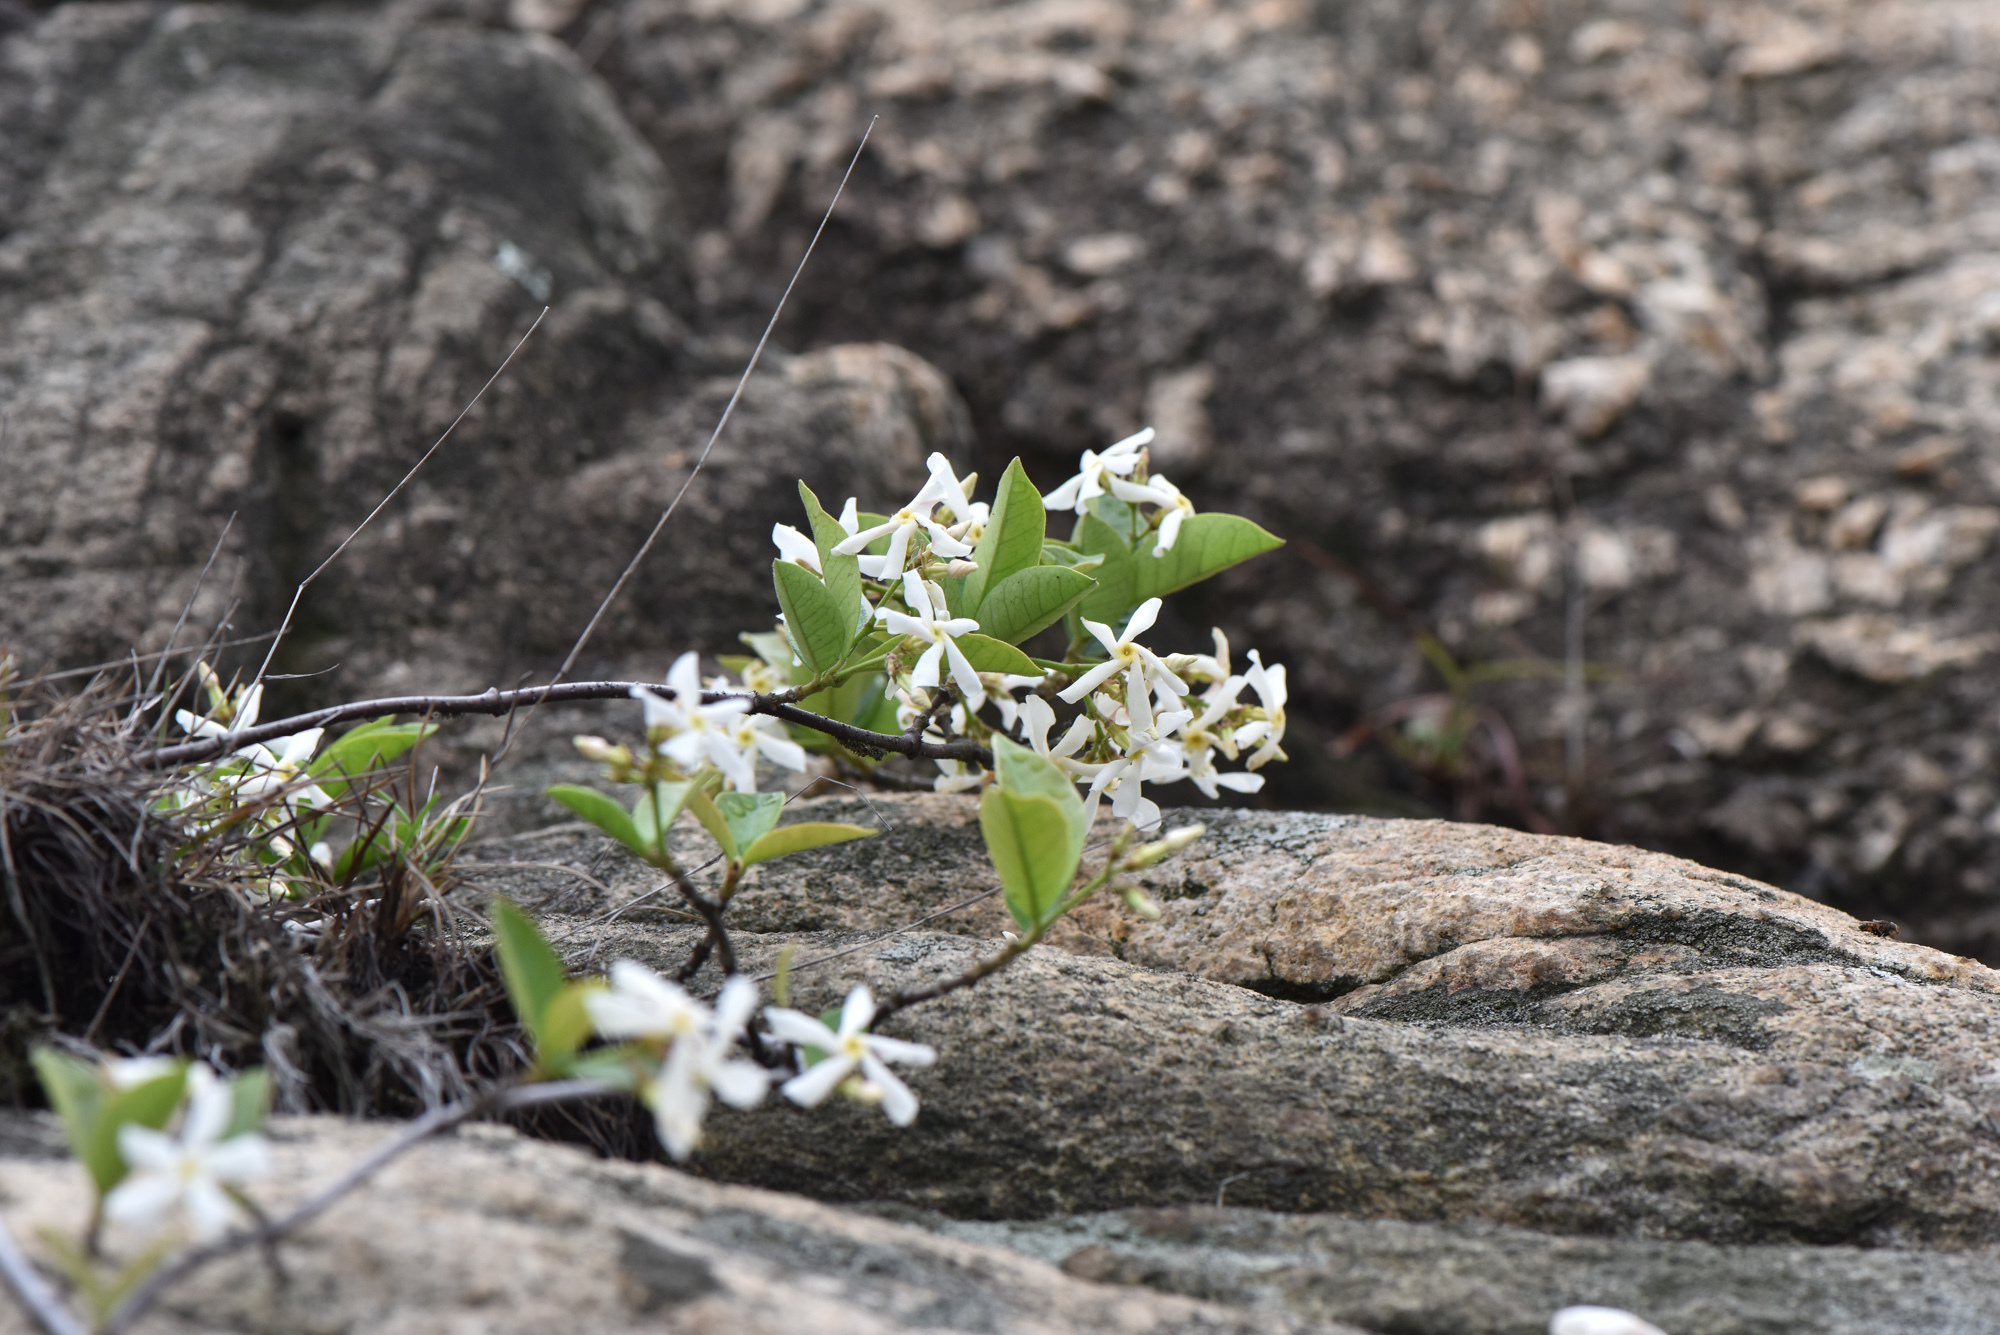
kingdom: Plantae
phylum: Tracheophyta
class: Magnoliopsida
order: Gentianales
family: Apocynaceae
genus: Trachelospermum
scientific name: Trachelospermum jasminoides
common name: Confederate jasmine
